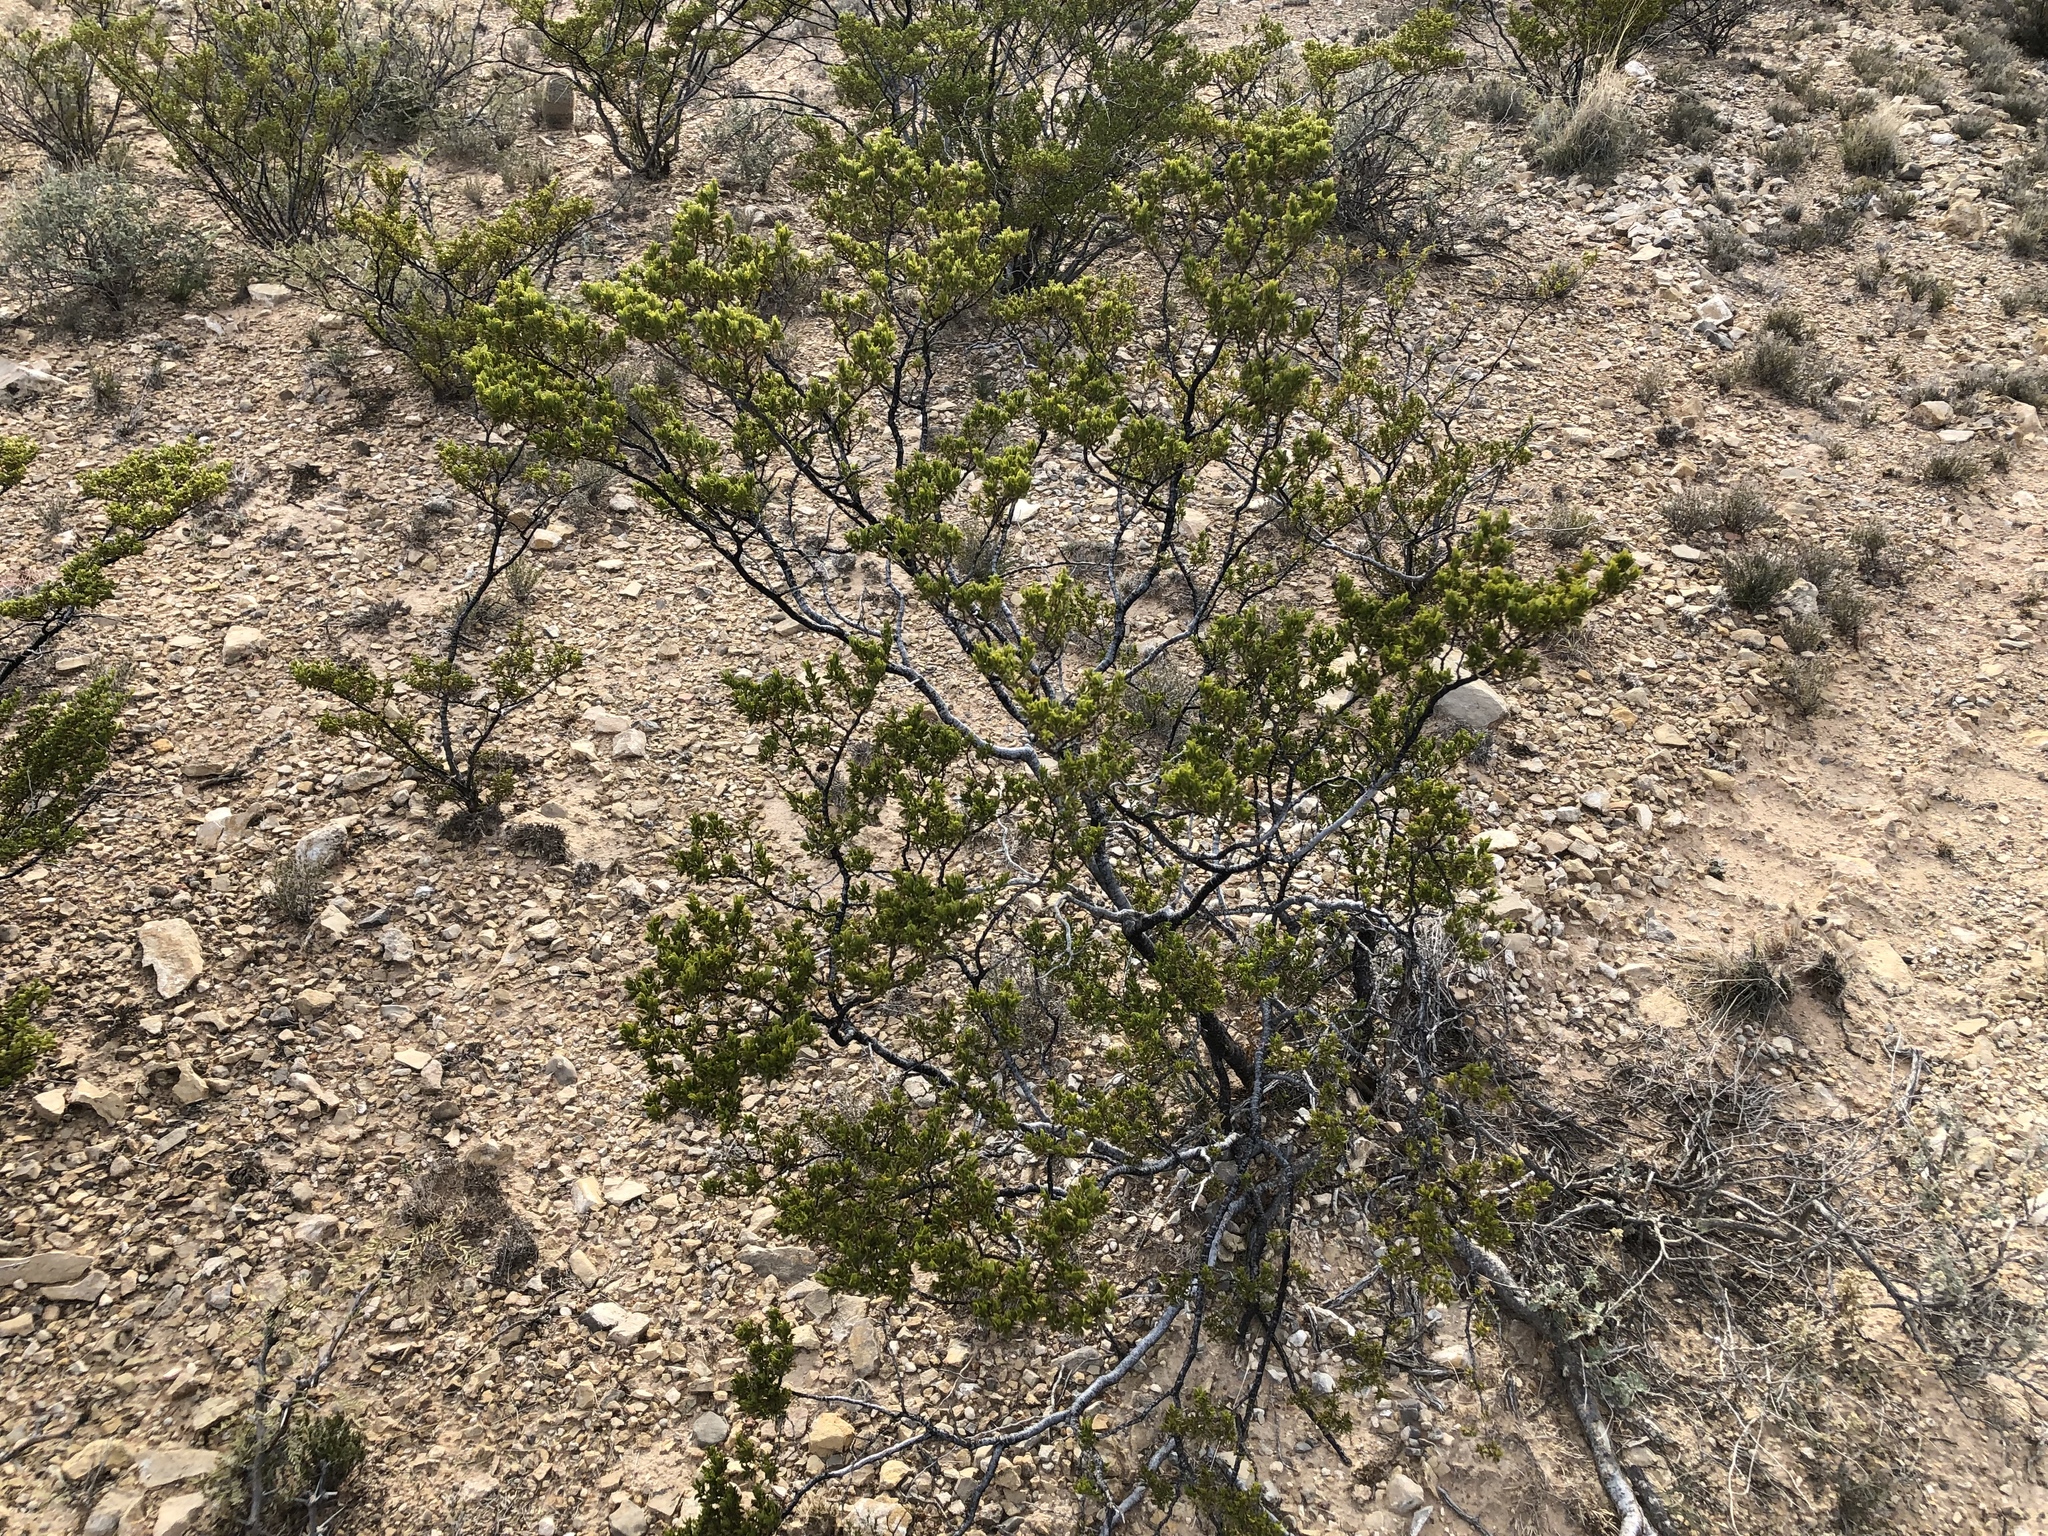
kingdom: Plantae
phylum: Tracheophyta
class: Magnoliopsida
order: Zygophyllales
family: Zygophyllaceae
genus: Larrea
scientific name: Larrea tridentata
